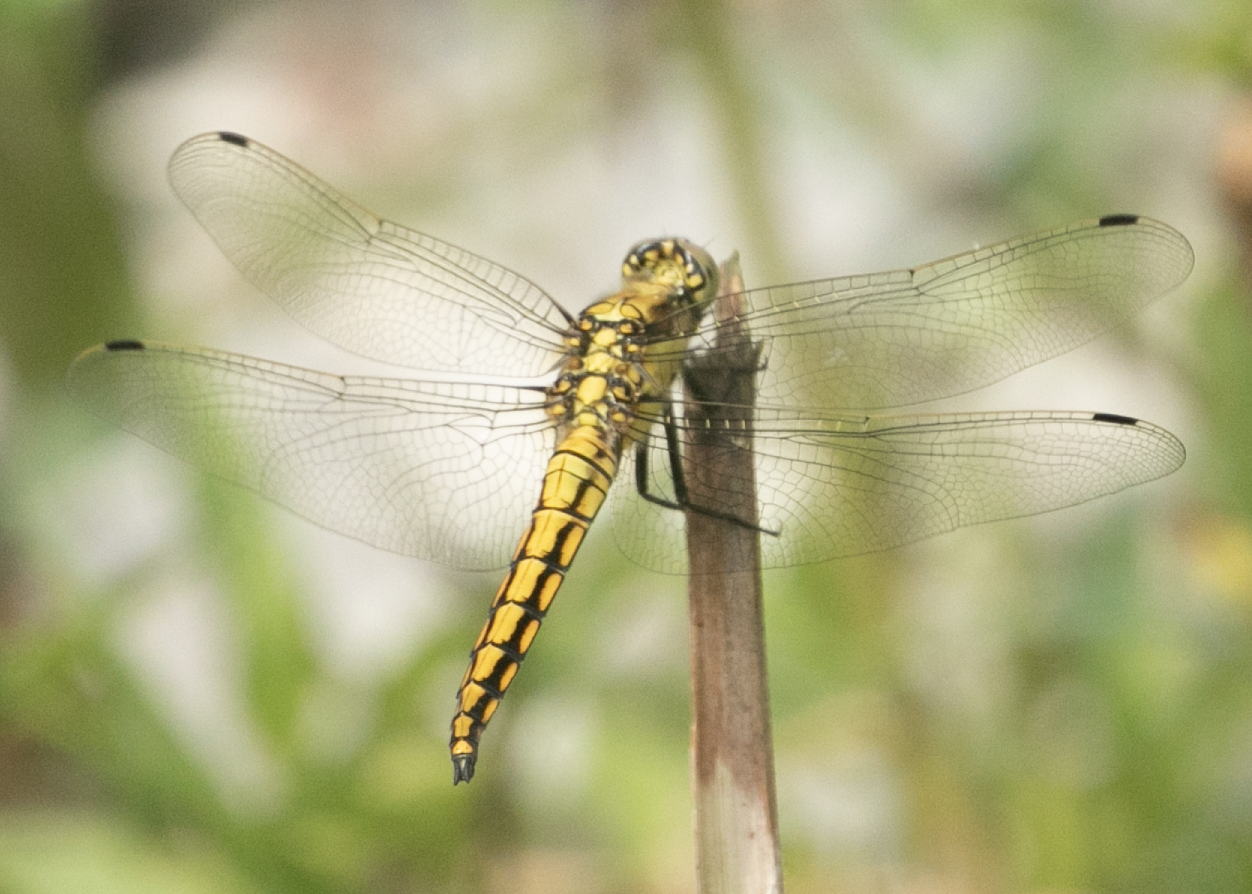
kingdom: Animalia
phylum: Arthropoda
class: Insecta
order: Odonata
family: Libellulidae
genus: Orthetrum
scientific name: Orthetrum cancellatum
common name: Black-tailed skimmer
